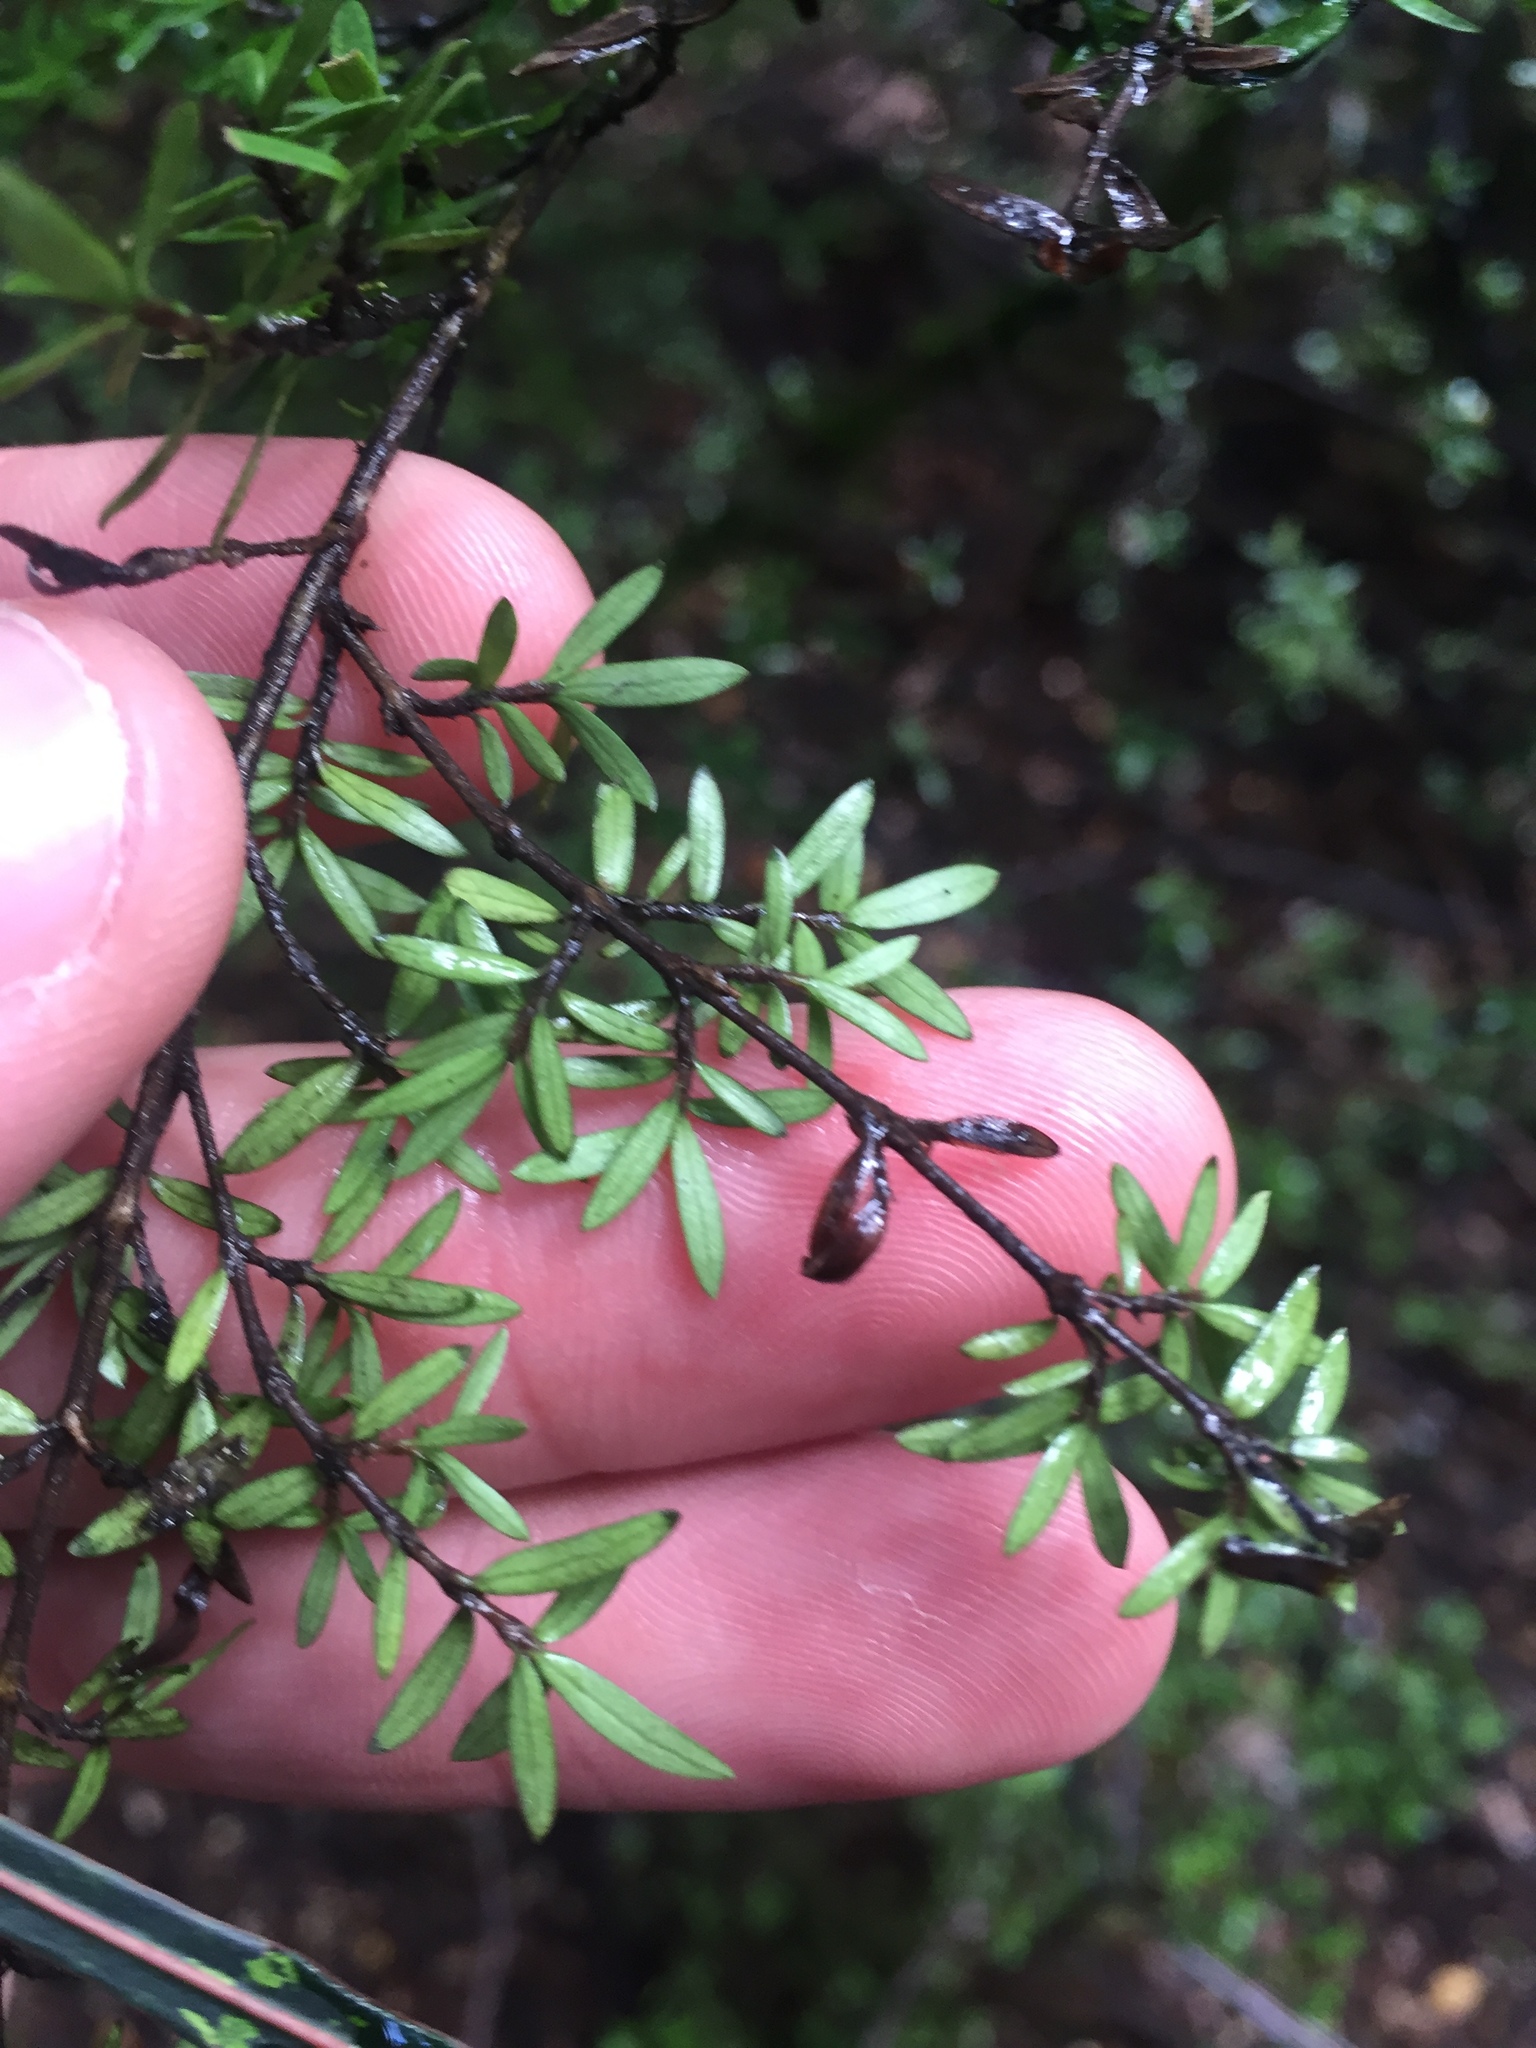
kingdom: Plantae
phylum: Tracheophyta
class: Magnoliopsida
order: Gentianales
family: Rubiaceae
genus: Coprosma
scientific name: Coprosma microcarpa
